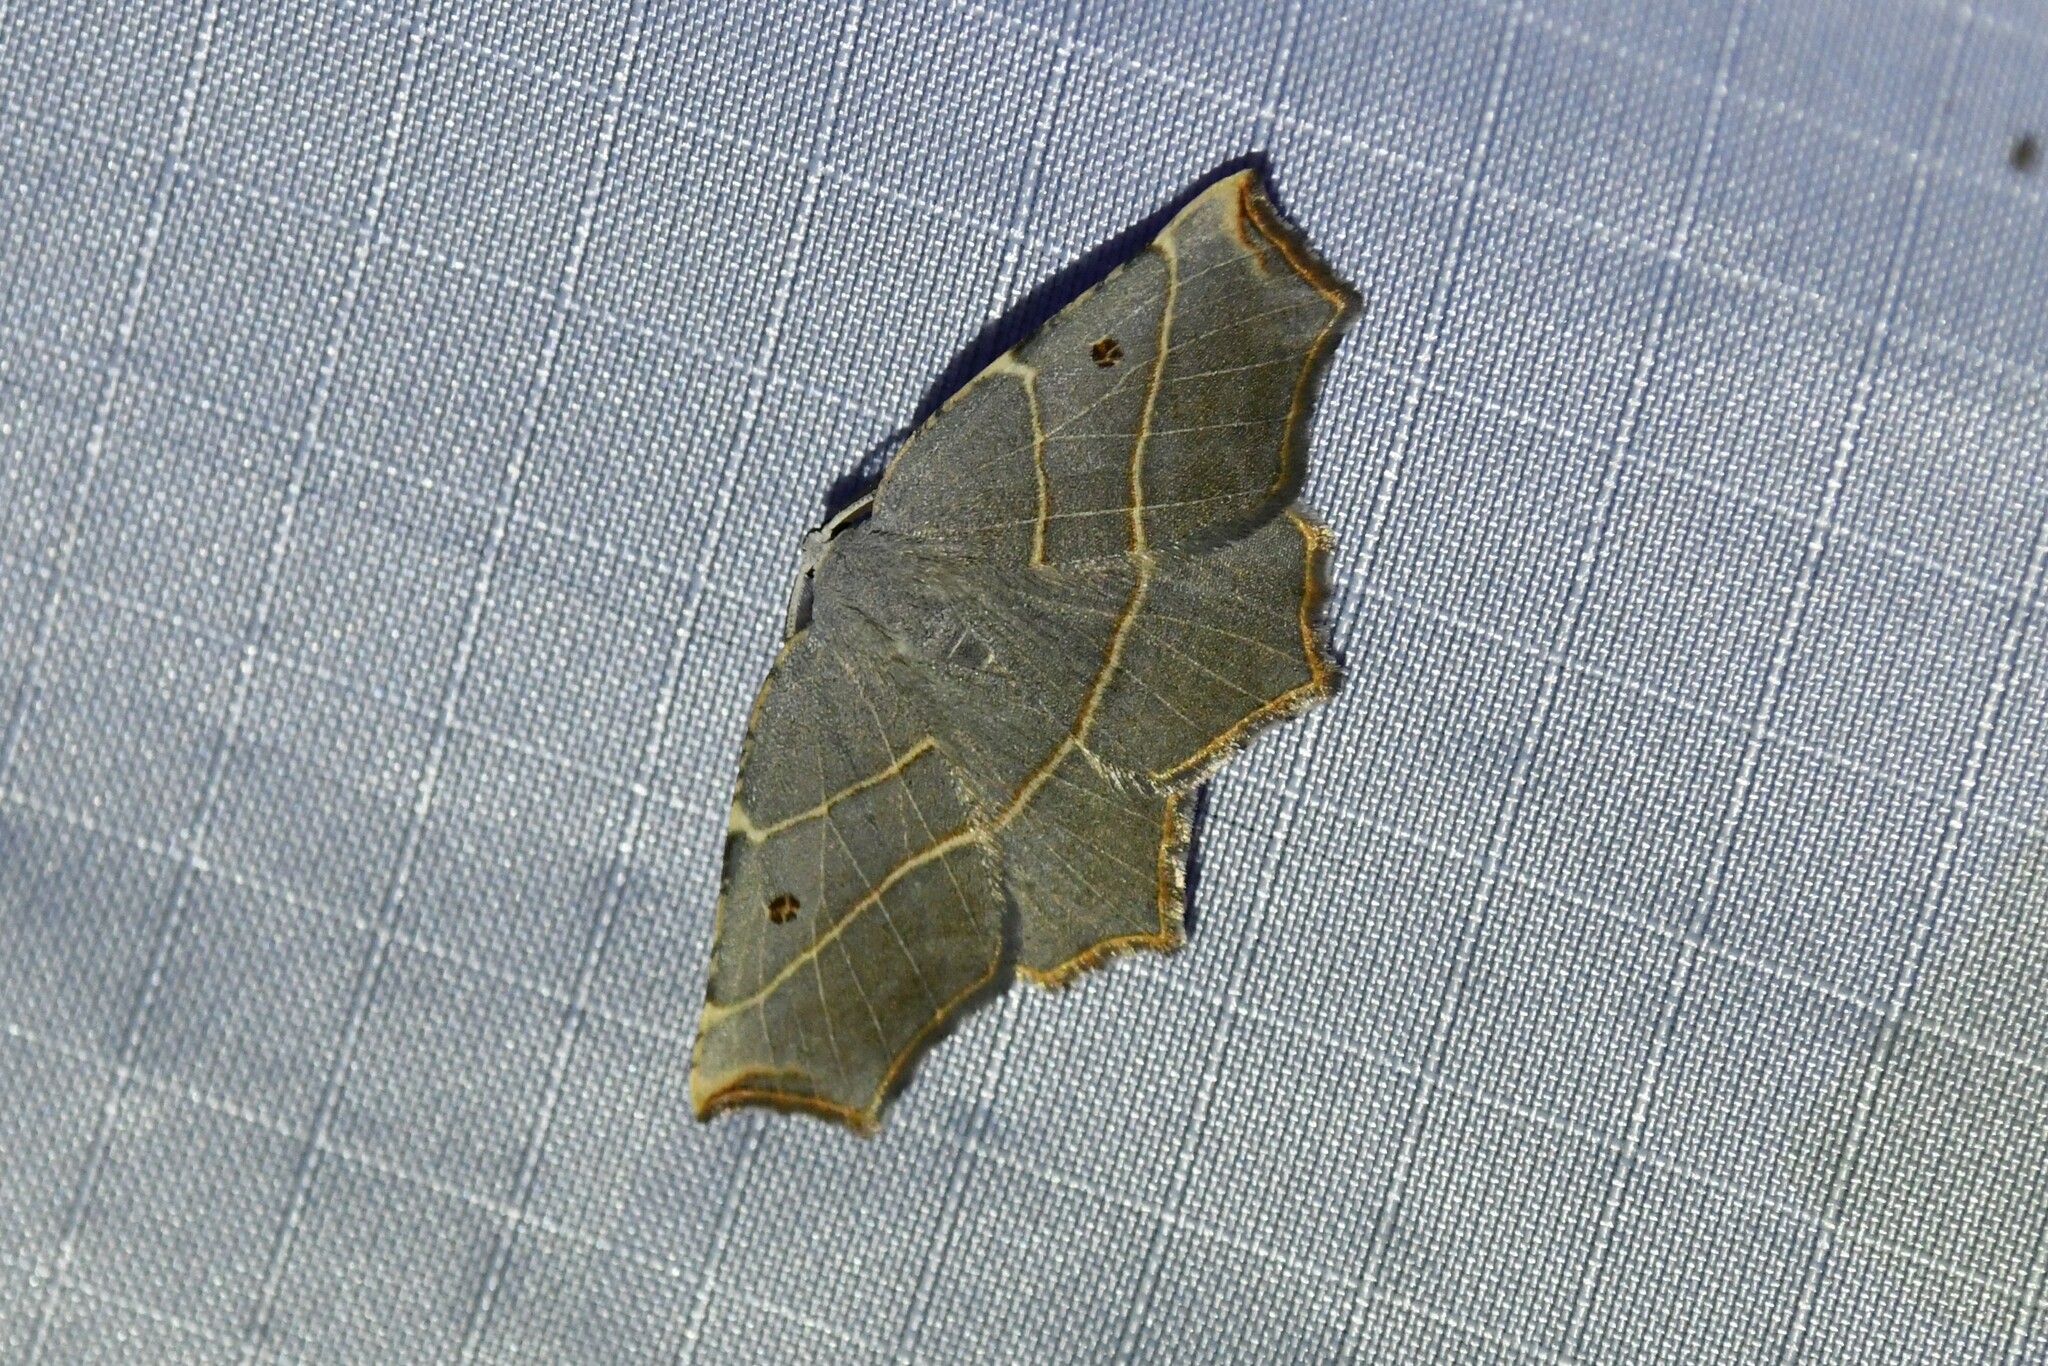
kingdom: Animalia
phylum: Arthropoda
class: Insecta
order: Lepidoptera
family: Geometridae
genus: Metanema
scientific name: Metanema inatomaria
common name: Pale metanema
